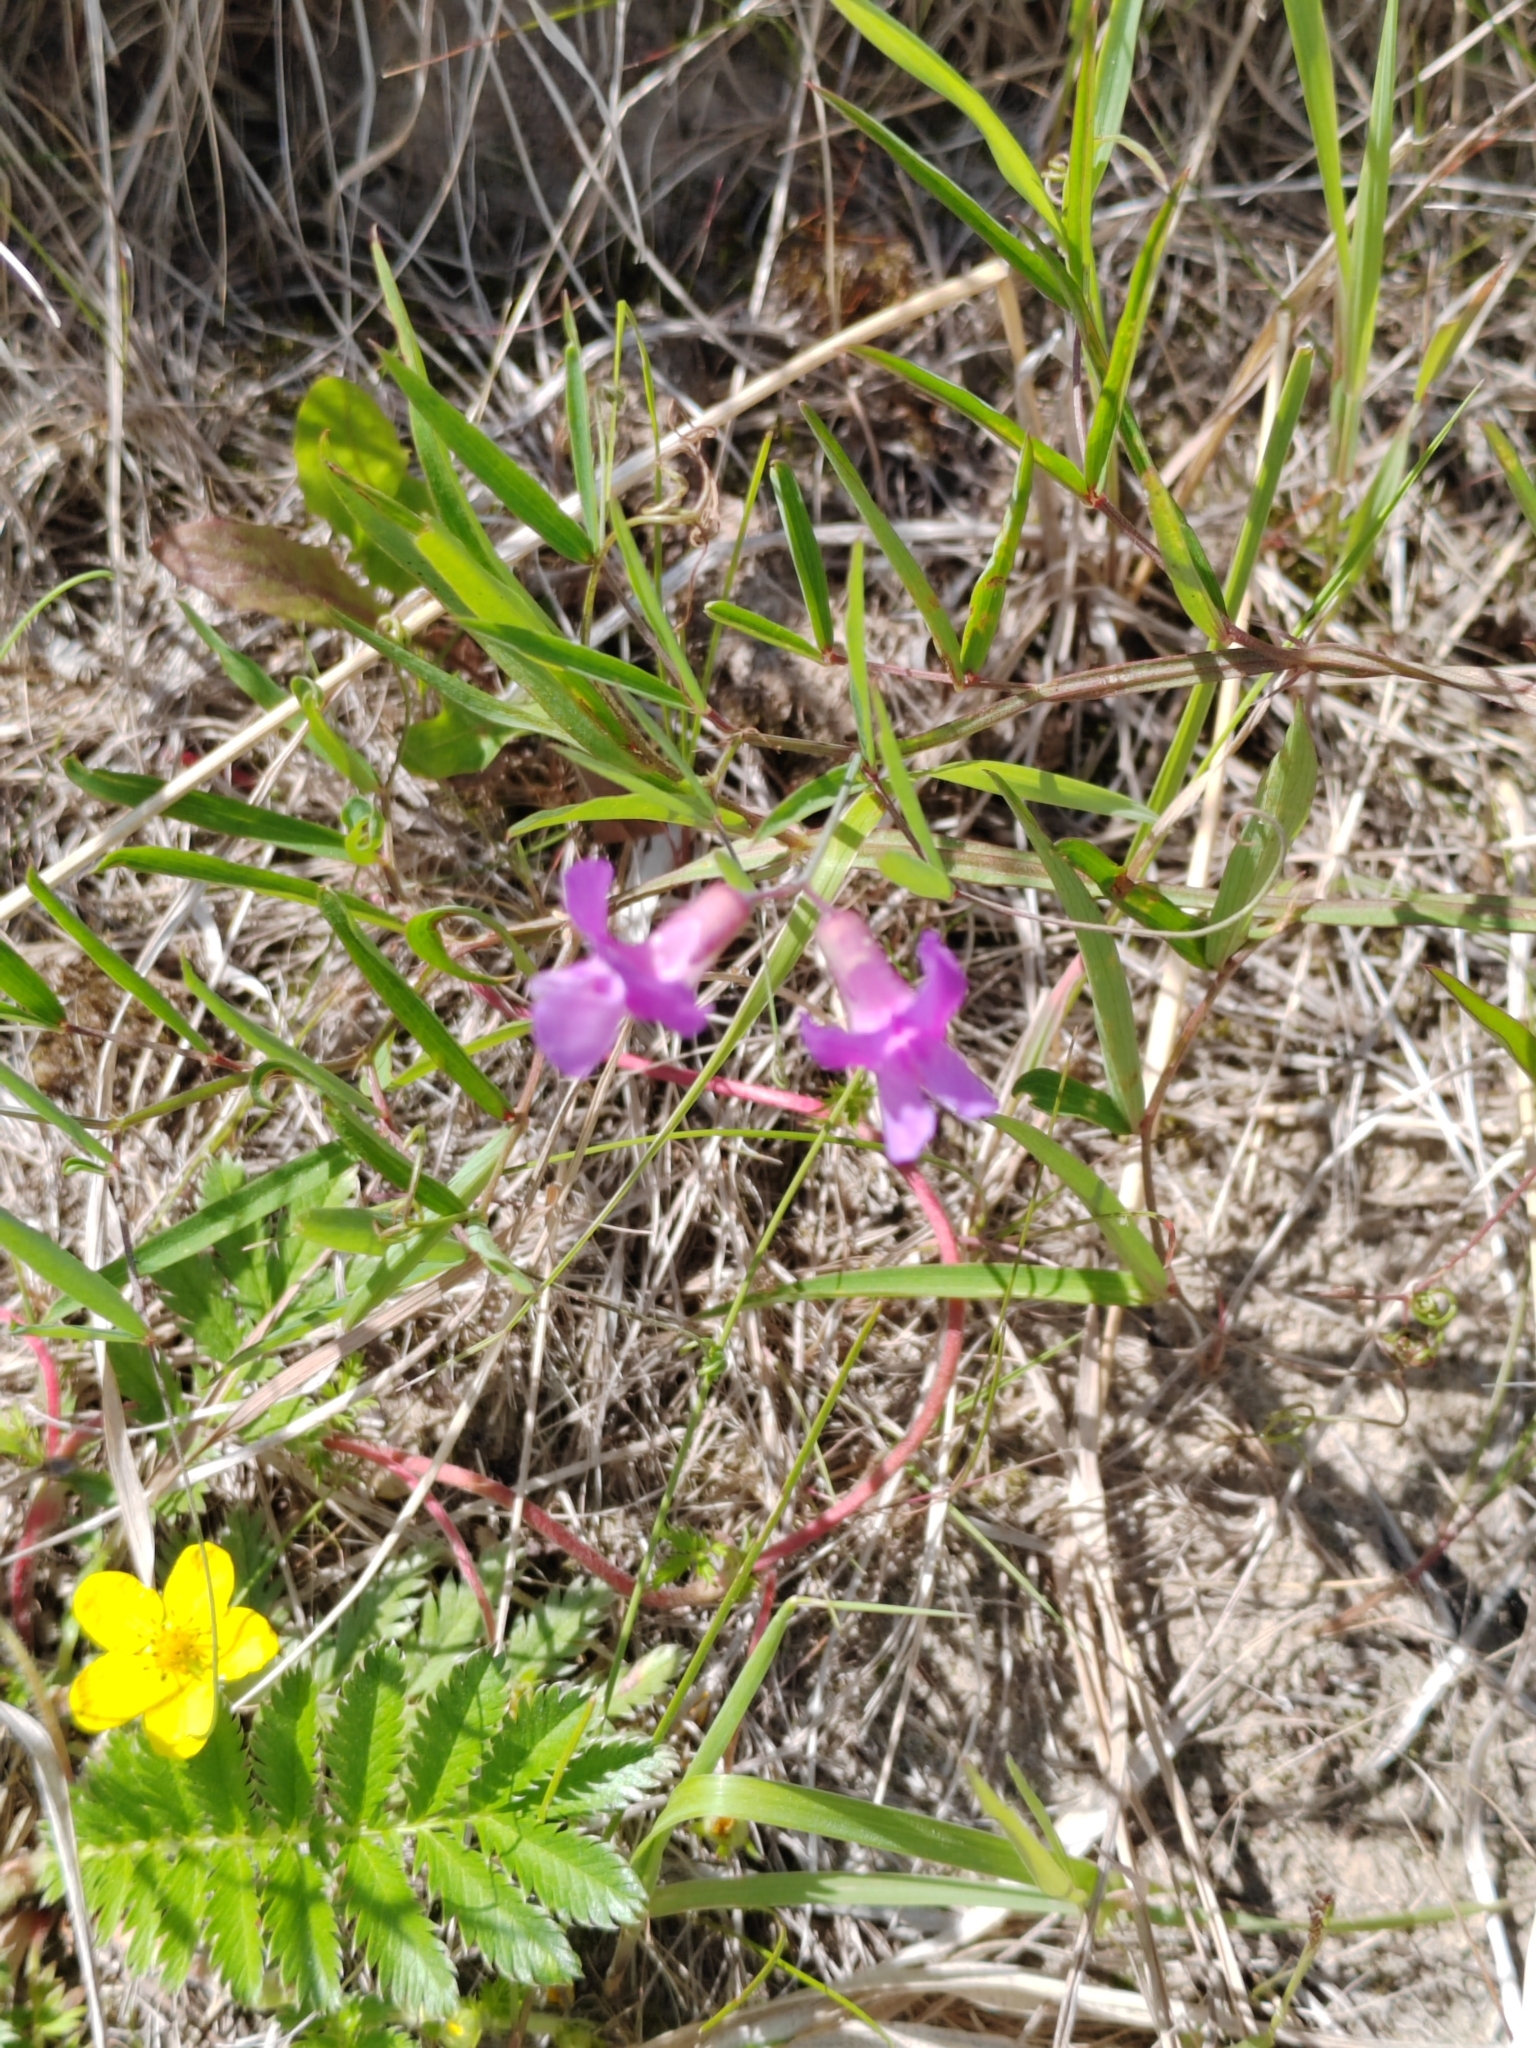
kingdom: Plantae
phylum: Tracheophyta
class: Magnoliopsida
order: Fabales
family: Fabaceae
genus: Lathyrus
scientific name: Lathyrus palustris
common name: Marsh pea
